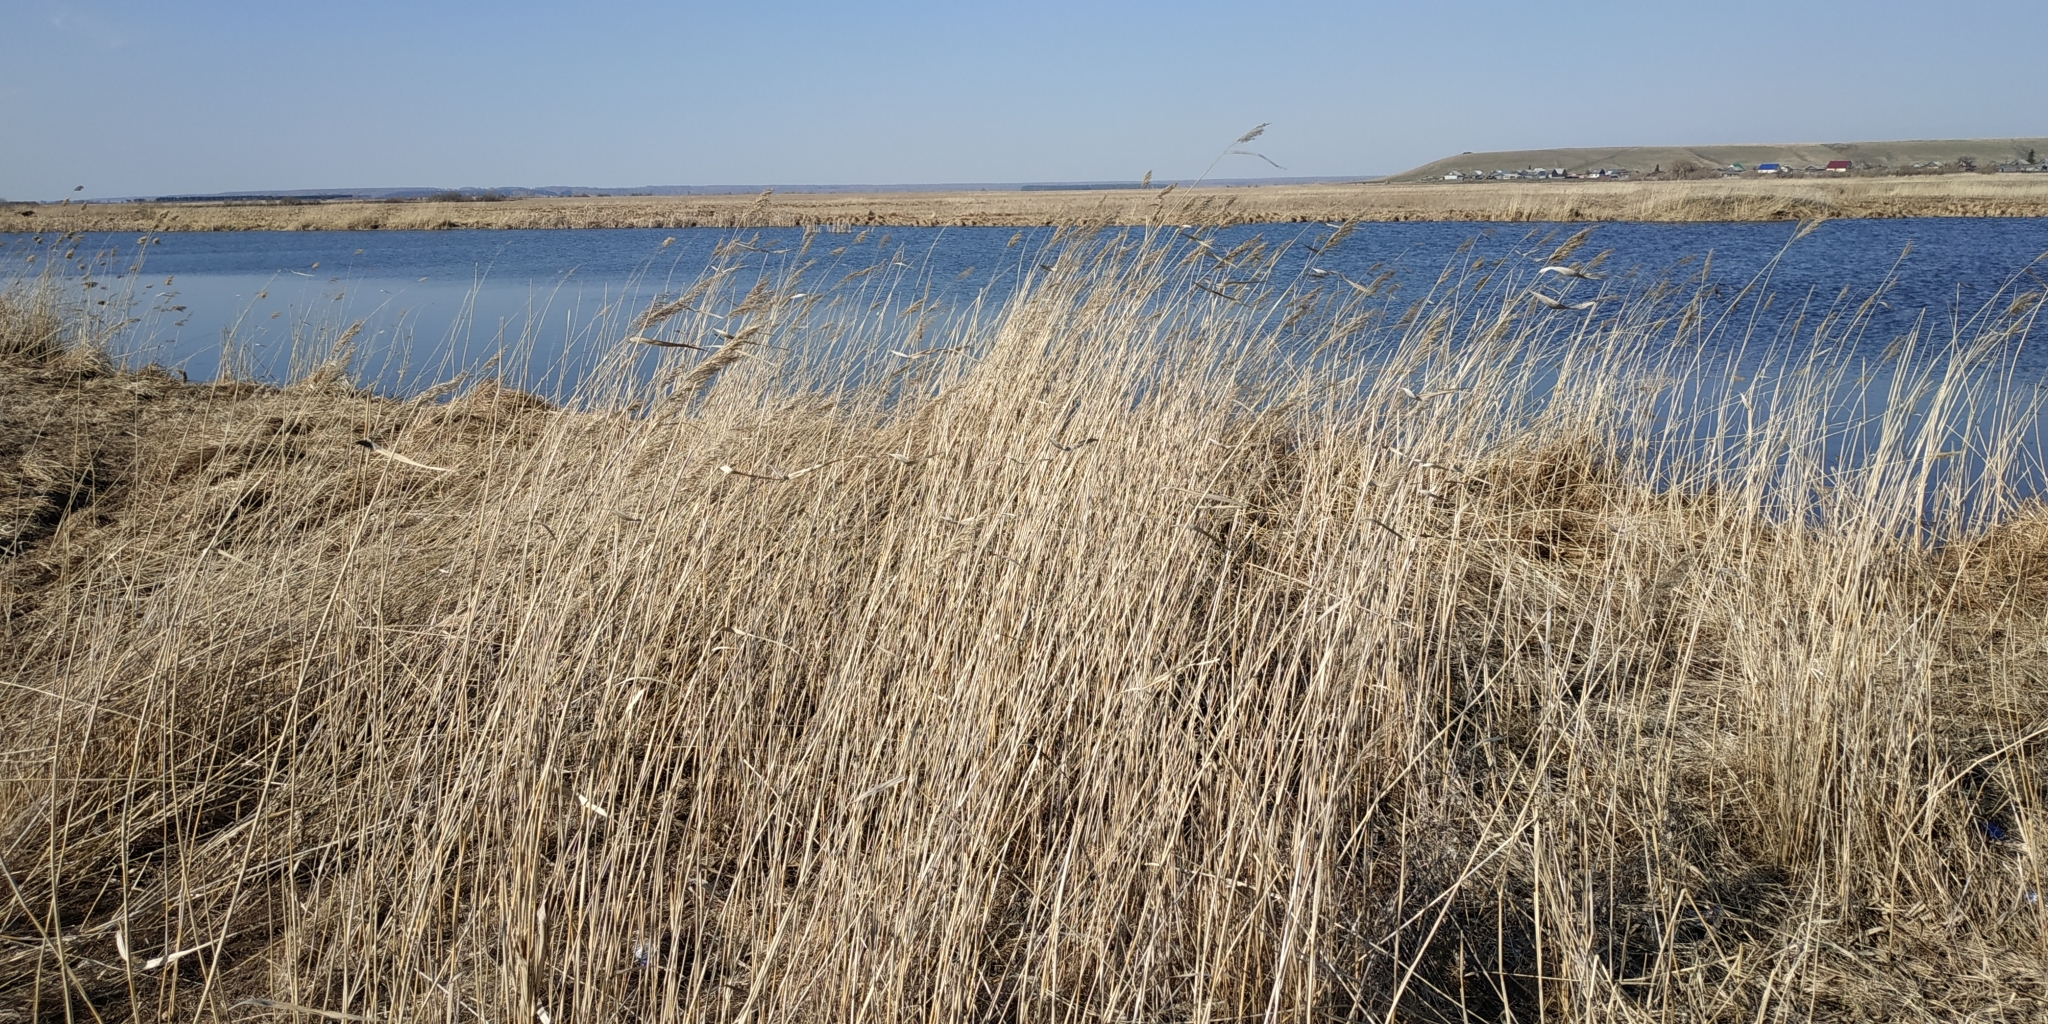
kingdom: Plantae
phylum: Tracheophyta
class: Liliopsida
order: Poales
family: Poaceae
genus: Phragmites
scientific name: Phragmites australis
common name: Common reed
